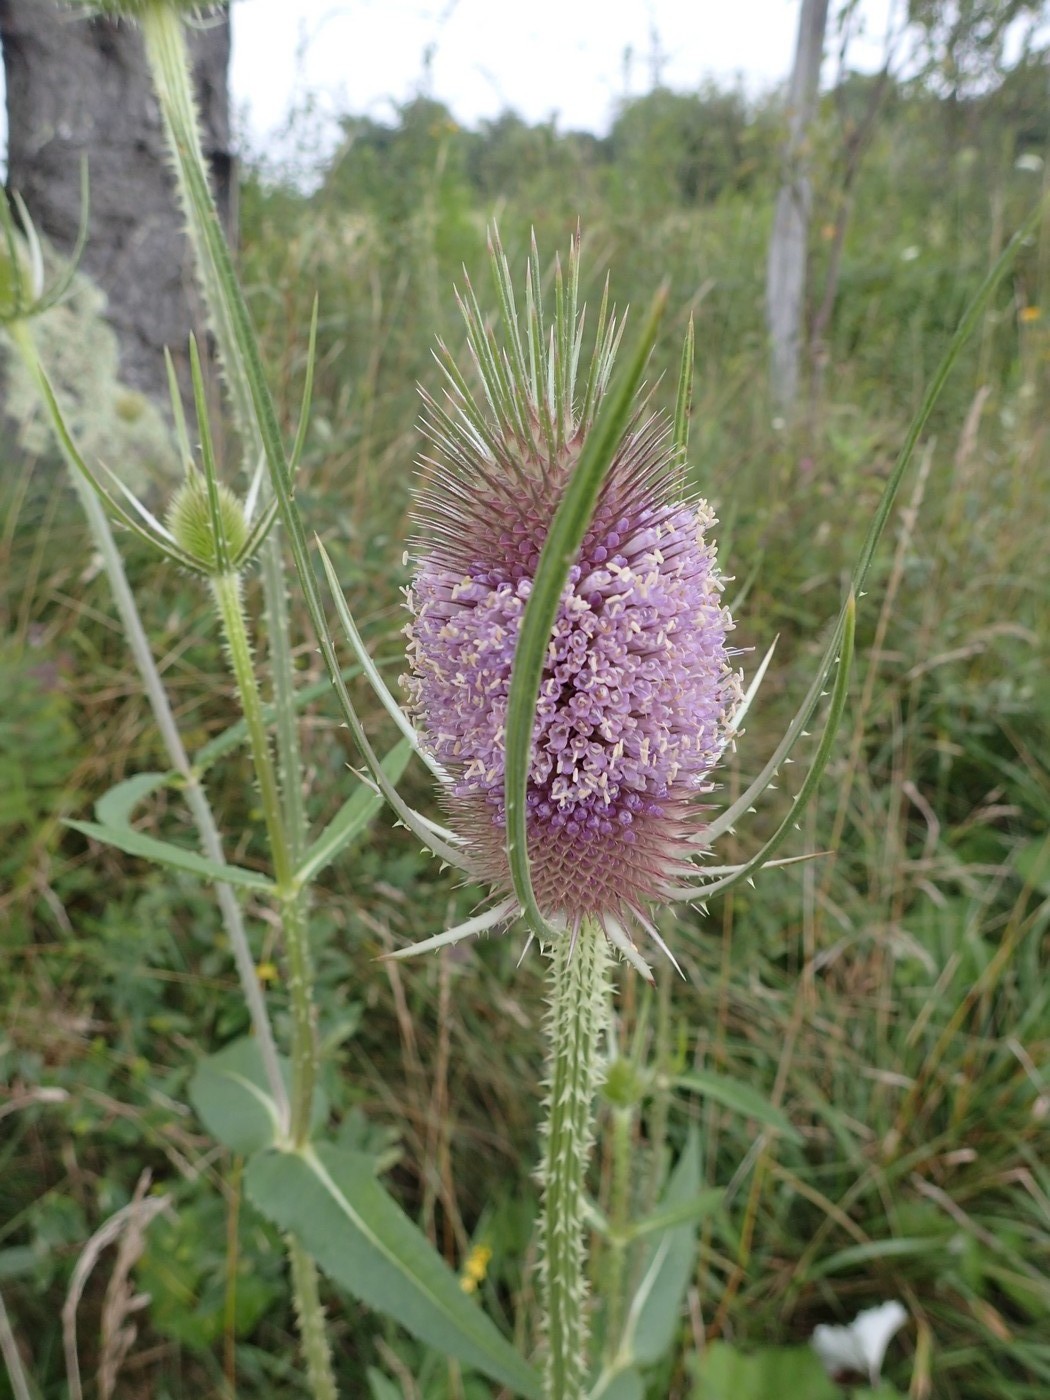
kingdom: Plantae
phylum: Tracheophyta
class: Magnoliopsida
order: Dipsacales
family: Caprifoliaceae
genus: Dipsacus
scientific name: Dipsacus fullonum
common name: Teasel
